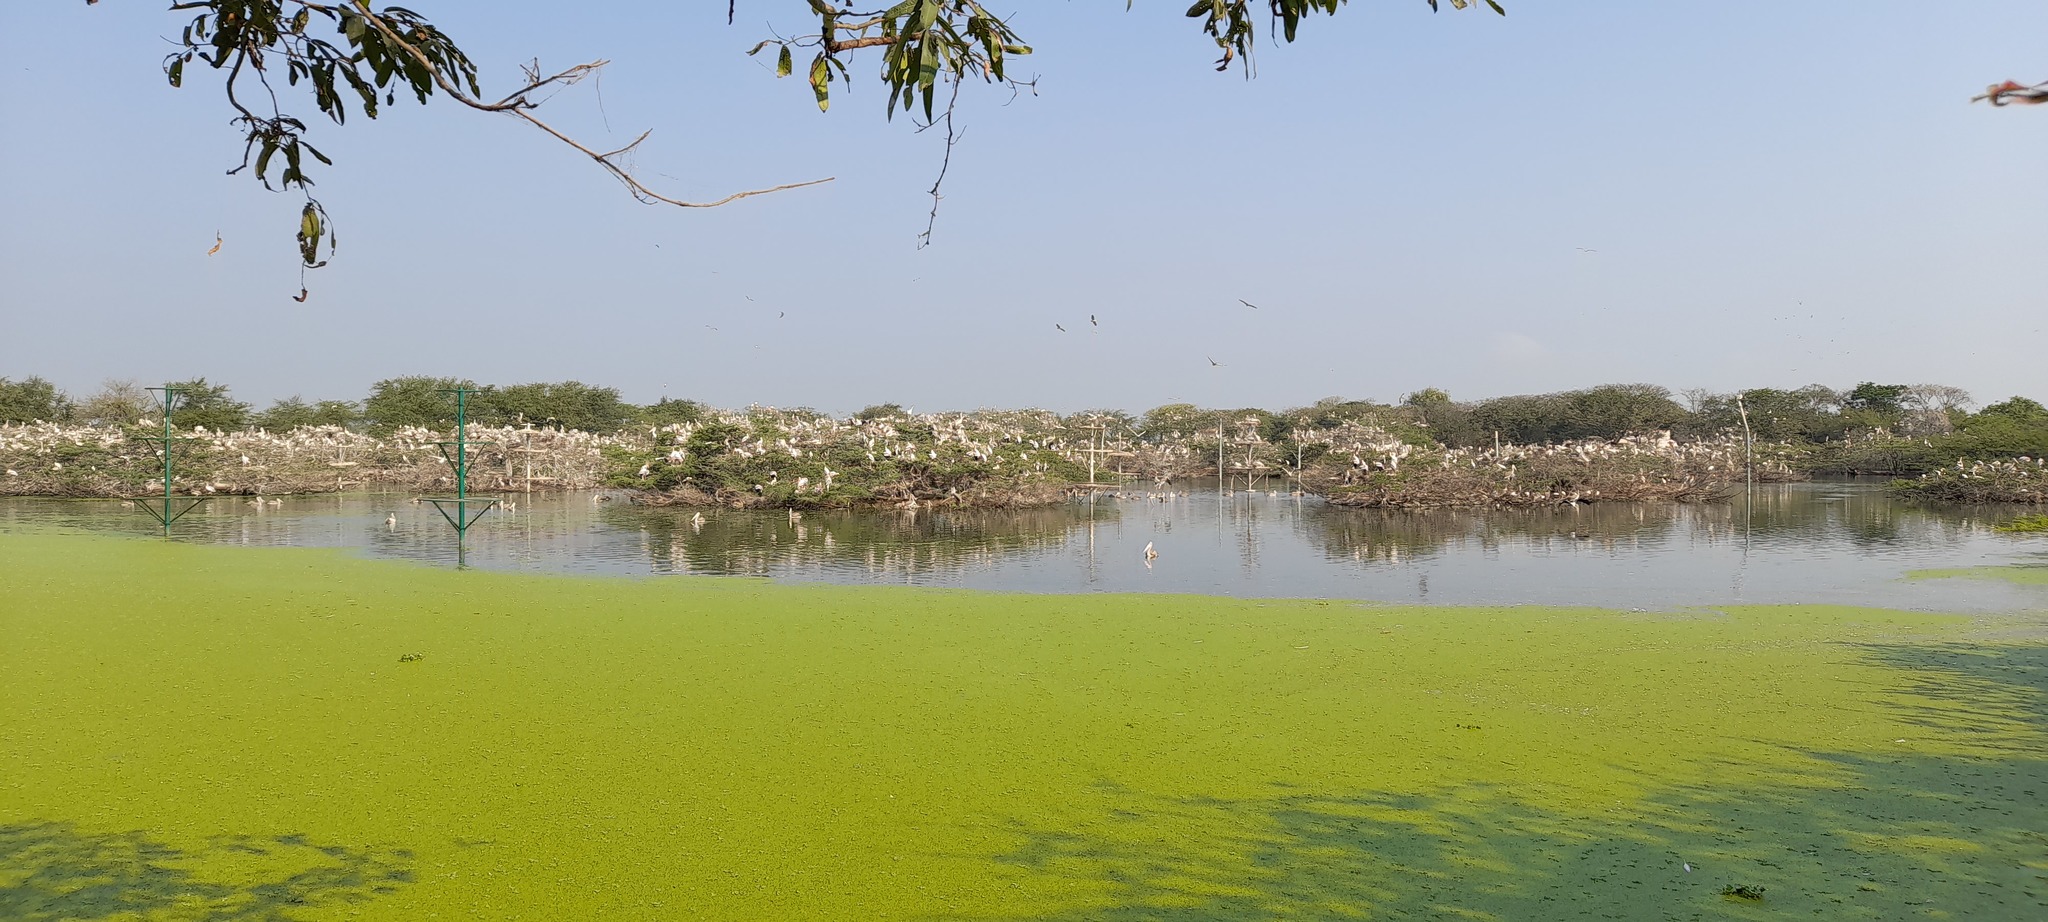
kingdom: Animalia
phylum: Chordata
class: Aves
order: Pelecaniformes
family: Pelecanidae
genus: Pelecanus
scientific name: Pelecanus philippensis
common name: Spot-billed pelican
